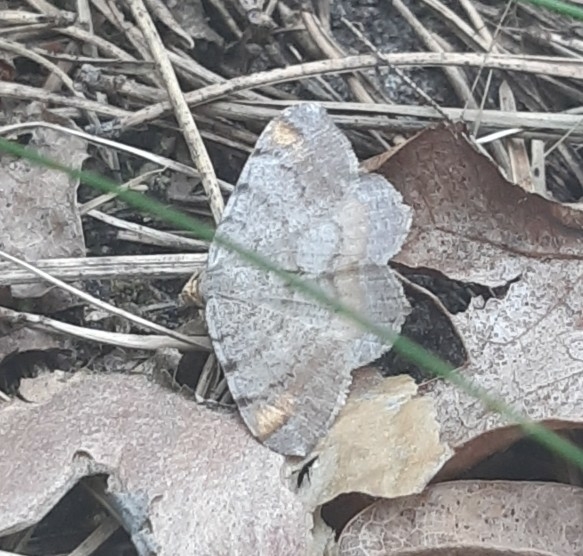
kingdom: Animalia
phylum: Arthropoda
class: Insecta
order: Lepidoptera
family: Geometridae
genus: Macaria
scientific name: Macaria liturata
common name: Tawny-barred angle
